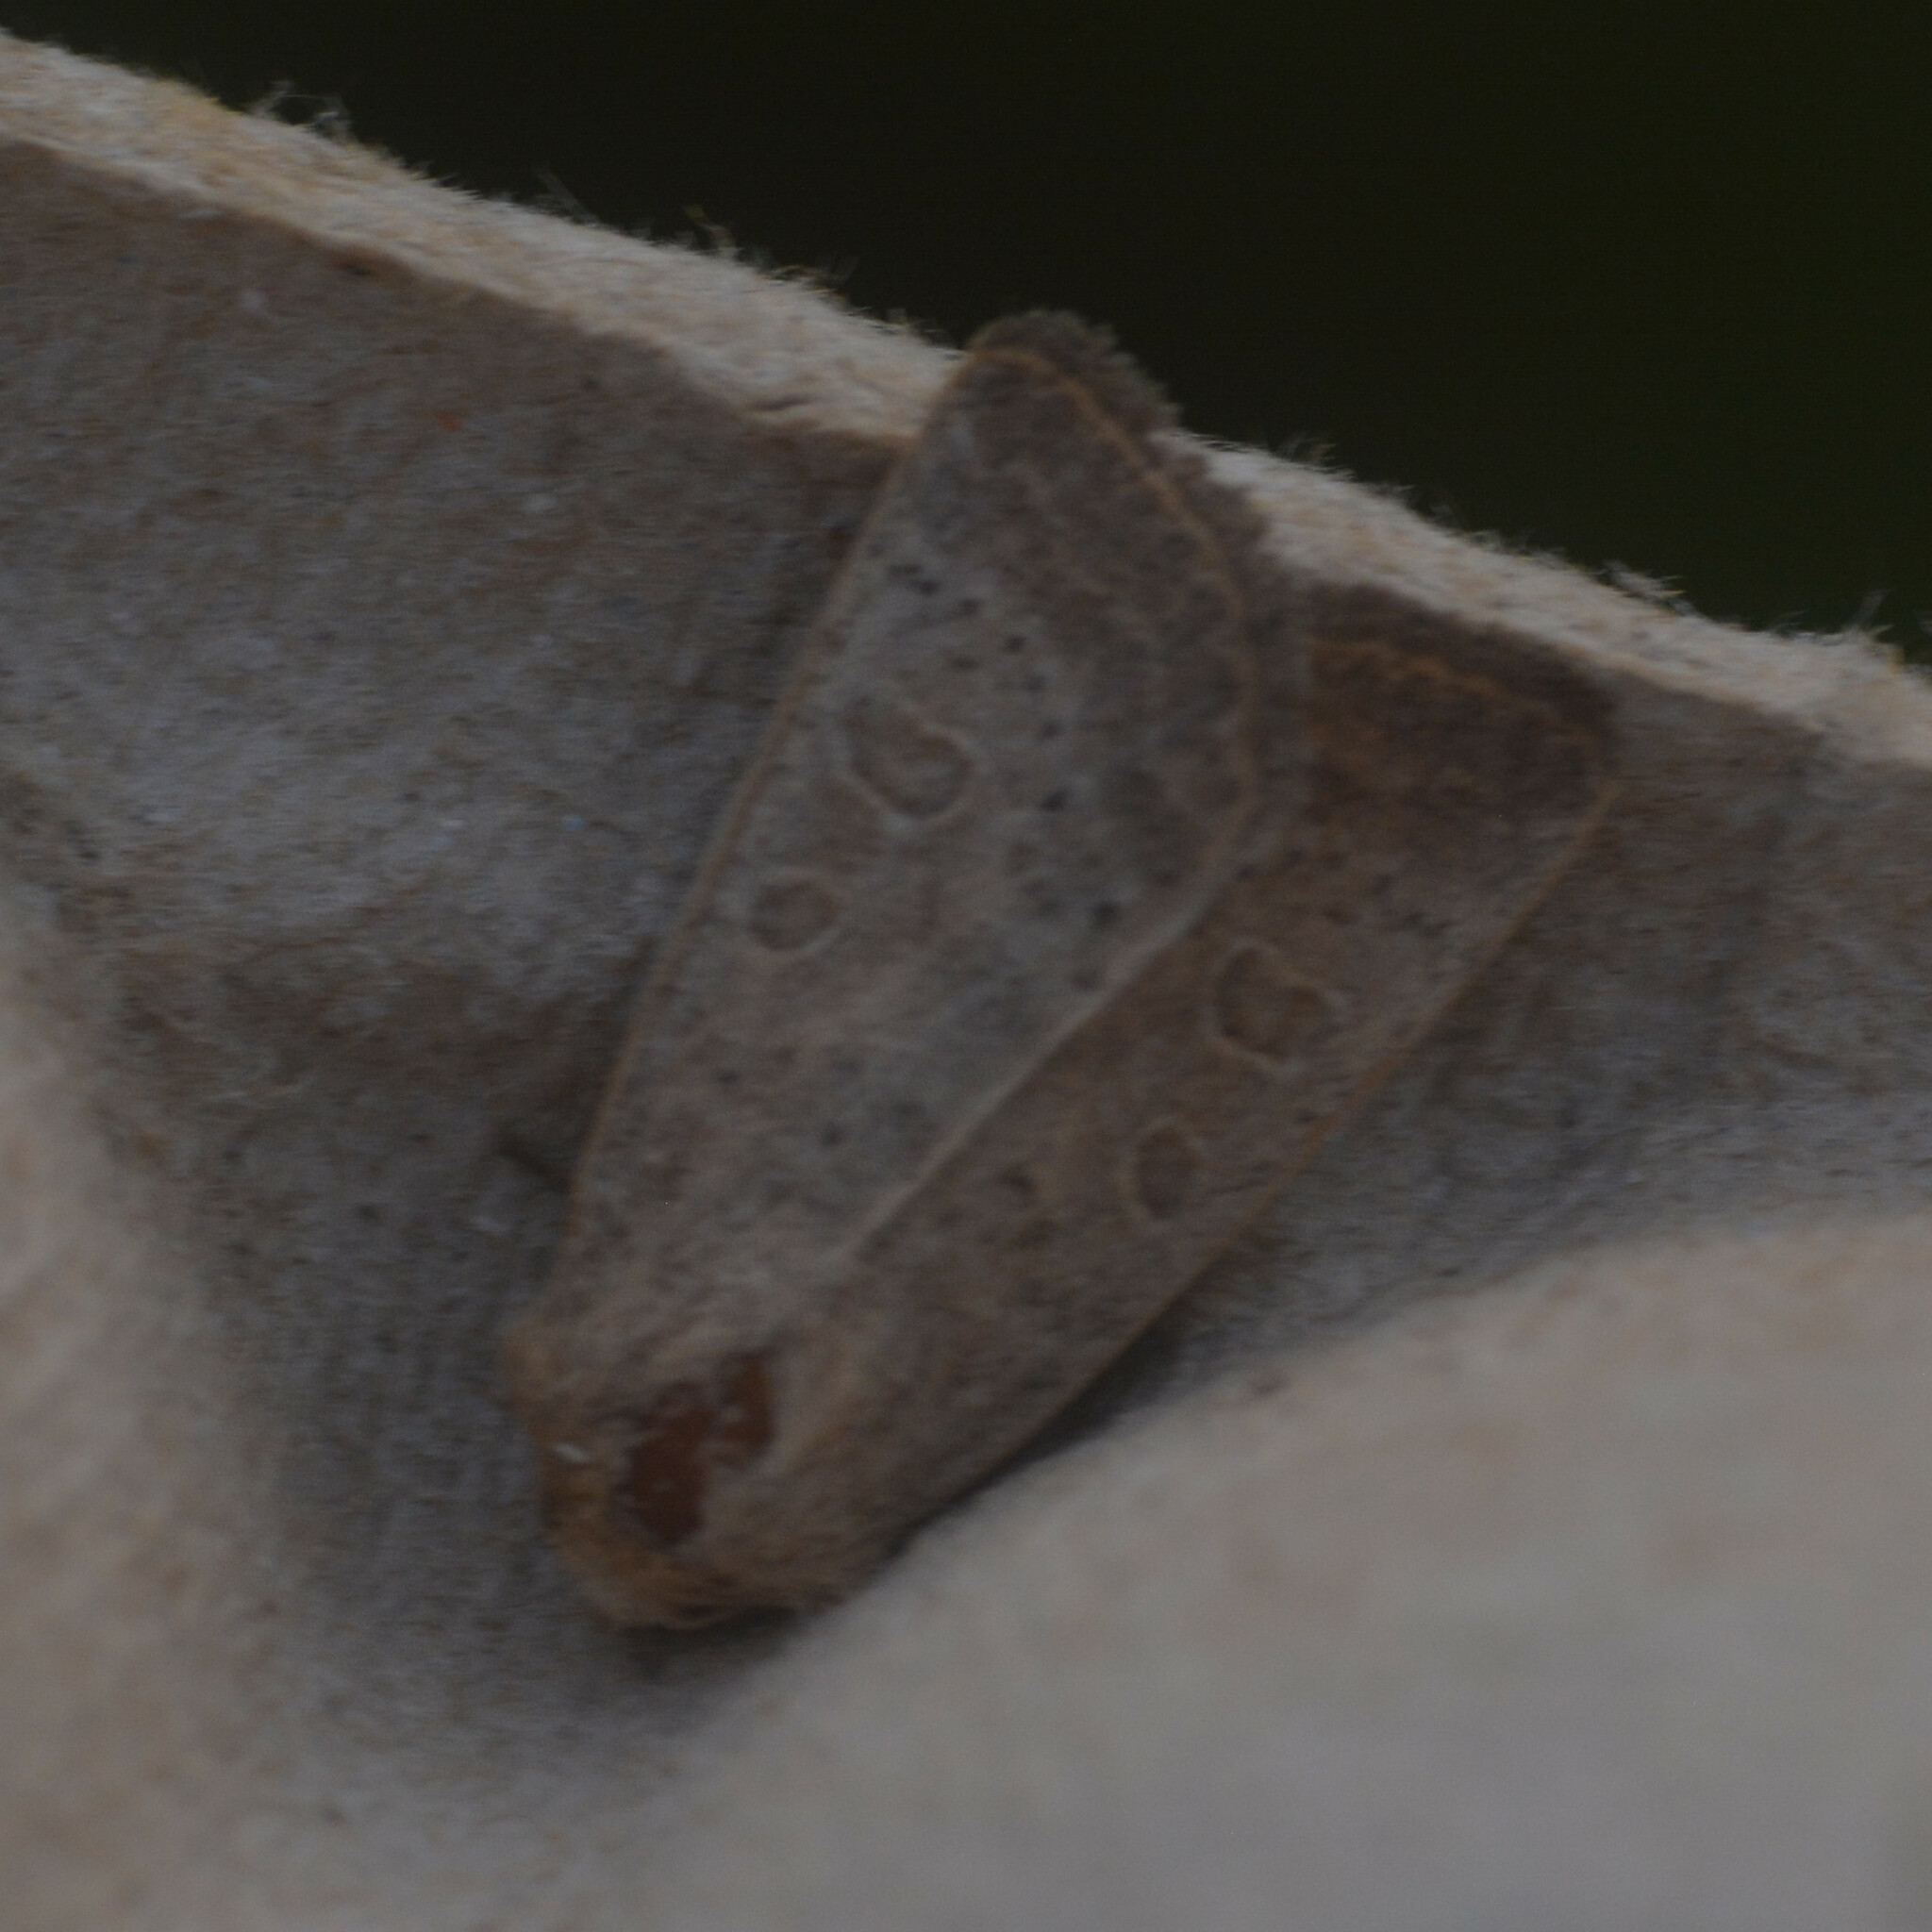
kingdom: Animalia
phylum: Arthropoda
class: Insecta
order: Lepidoptera
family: Noctuidae
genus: Hoplodrina
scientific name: Hoplodrina ambigua
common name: Vine's rustic
